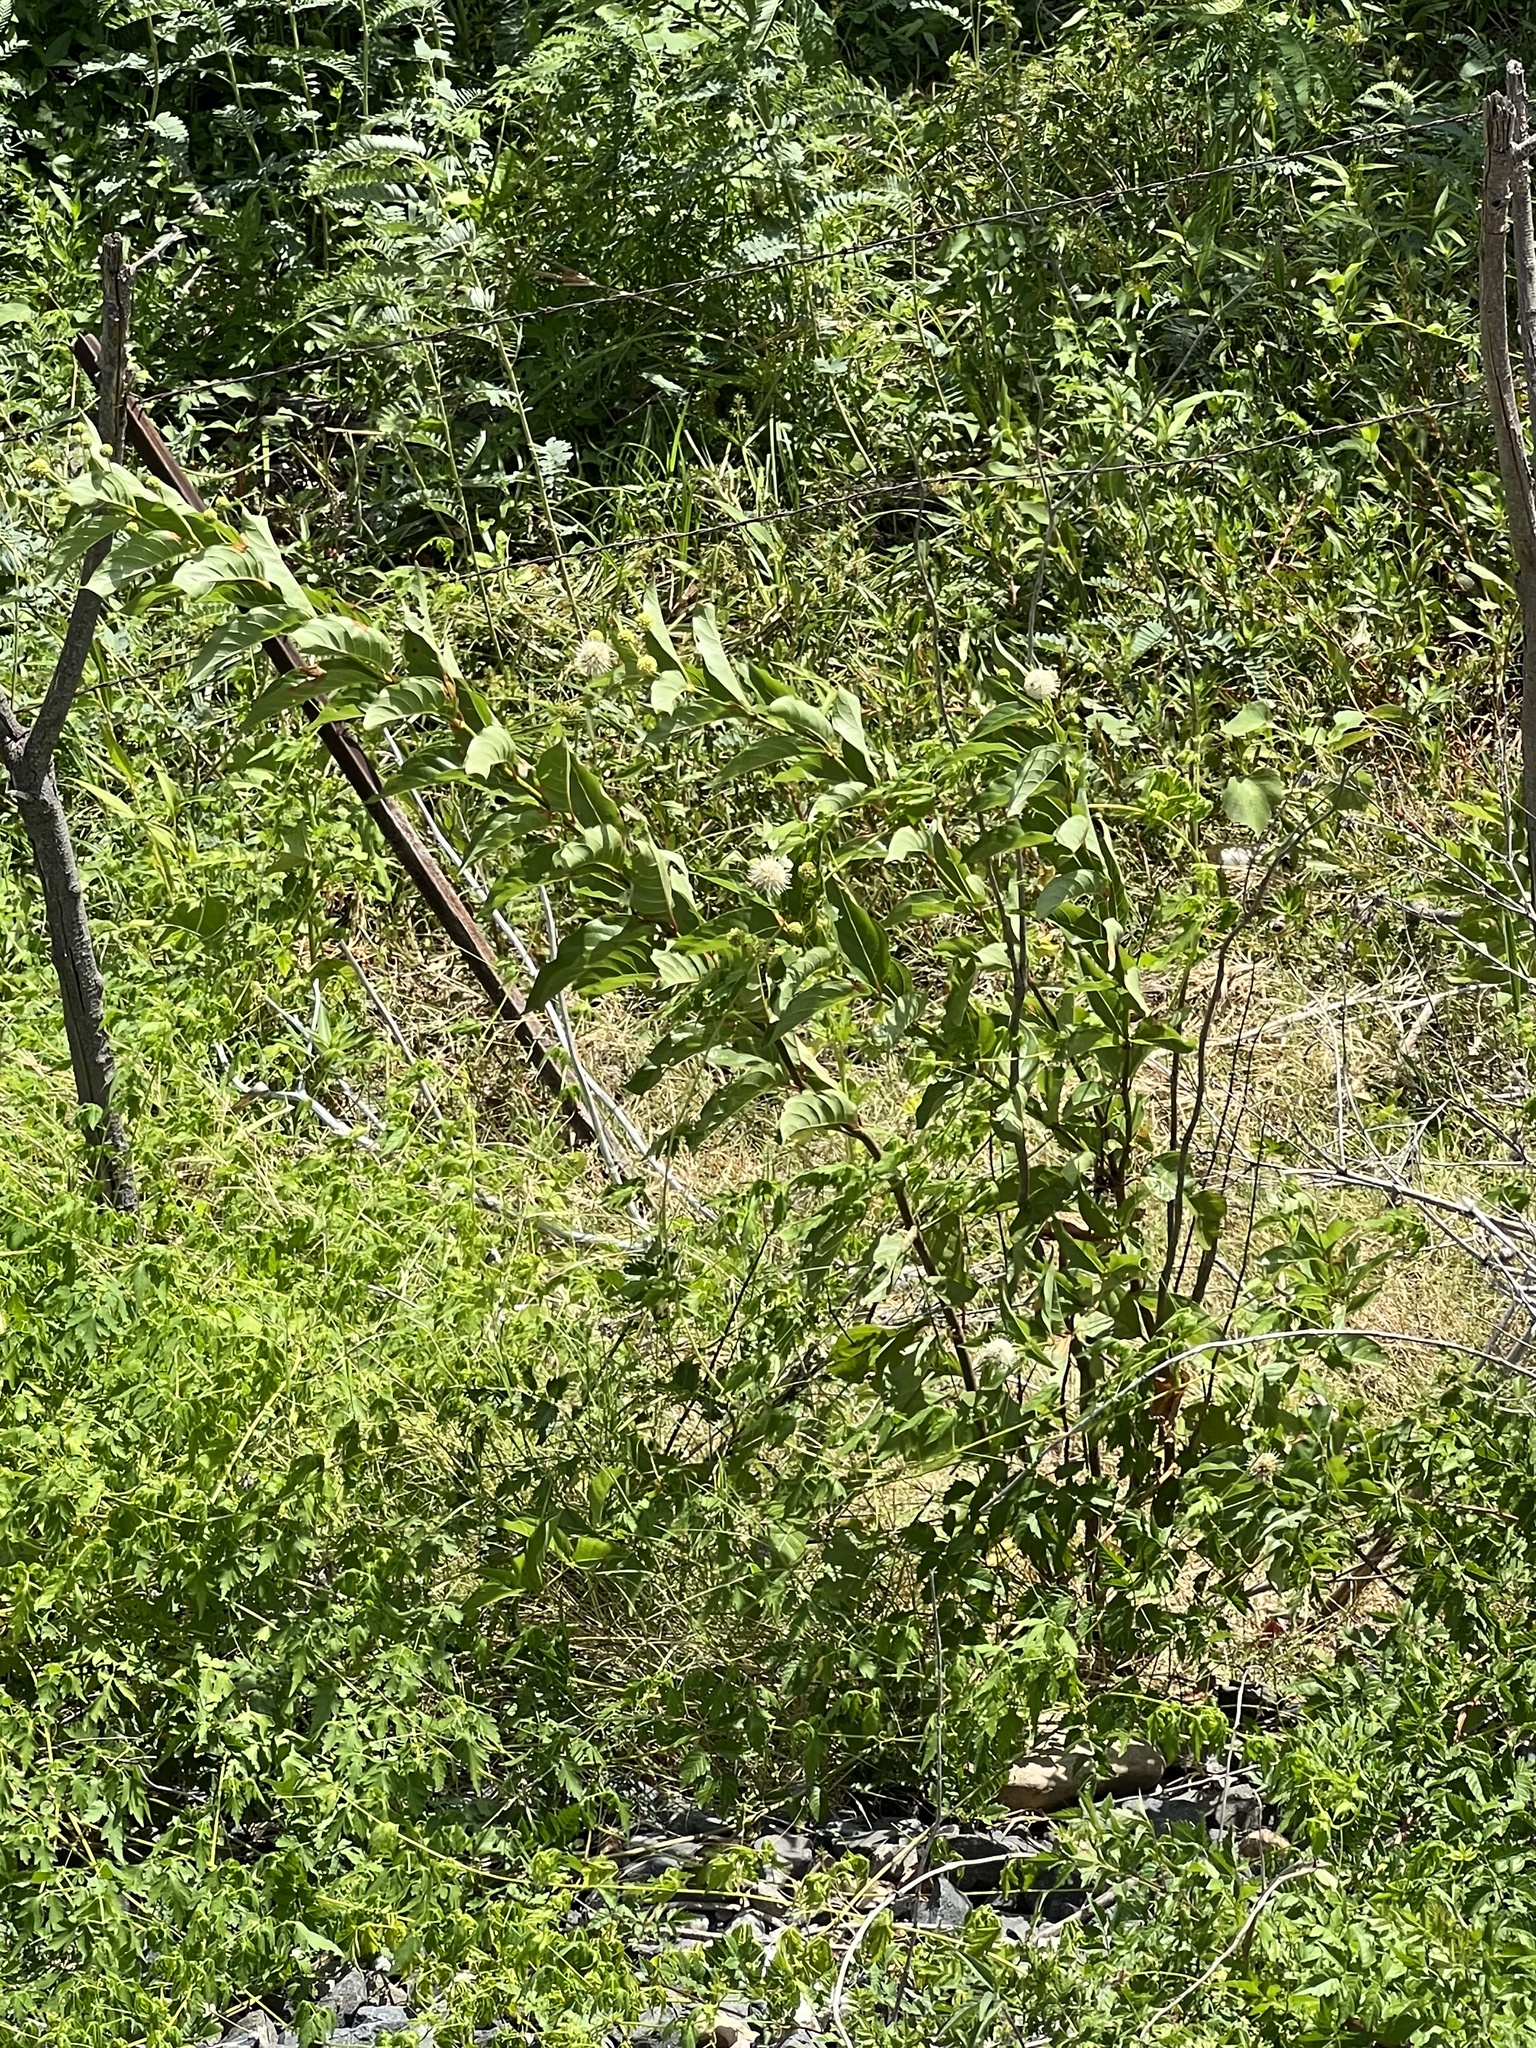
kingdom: Plantae
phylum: Tracheophyta
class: Magnoliopsida
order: Gentianales
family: Rubiaceae
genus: Cephalanthus
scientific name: Cephalanthus occidentalis
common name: Button-willow
